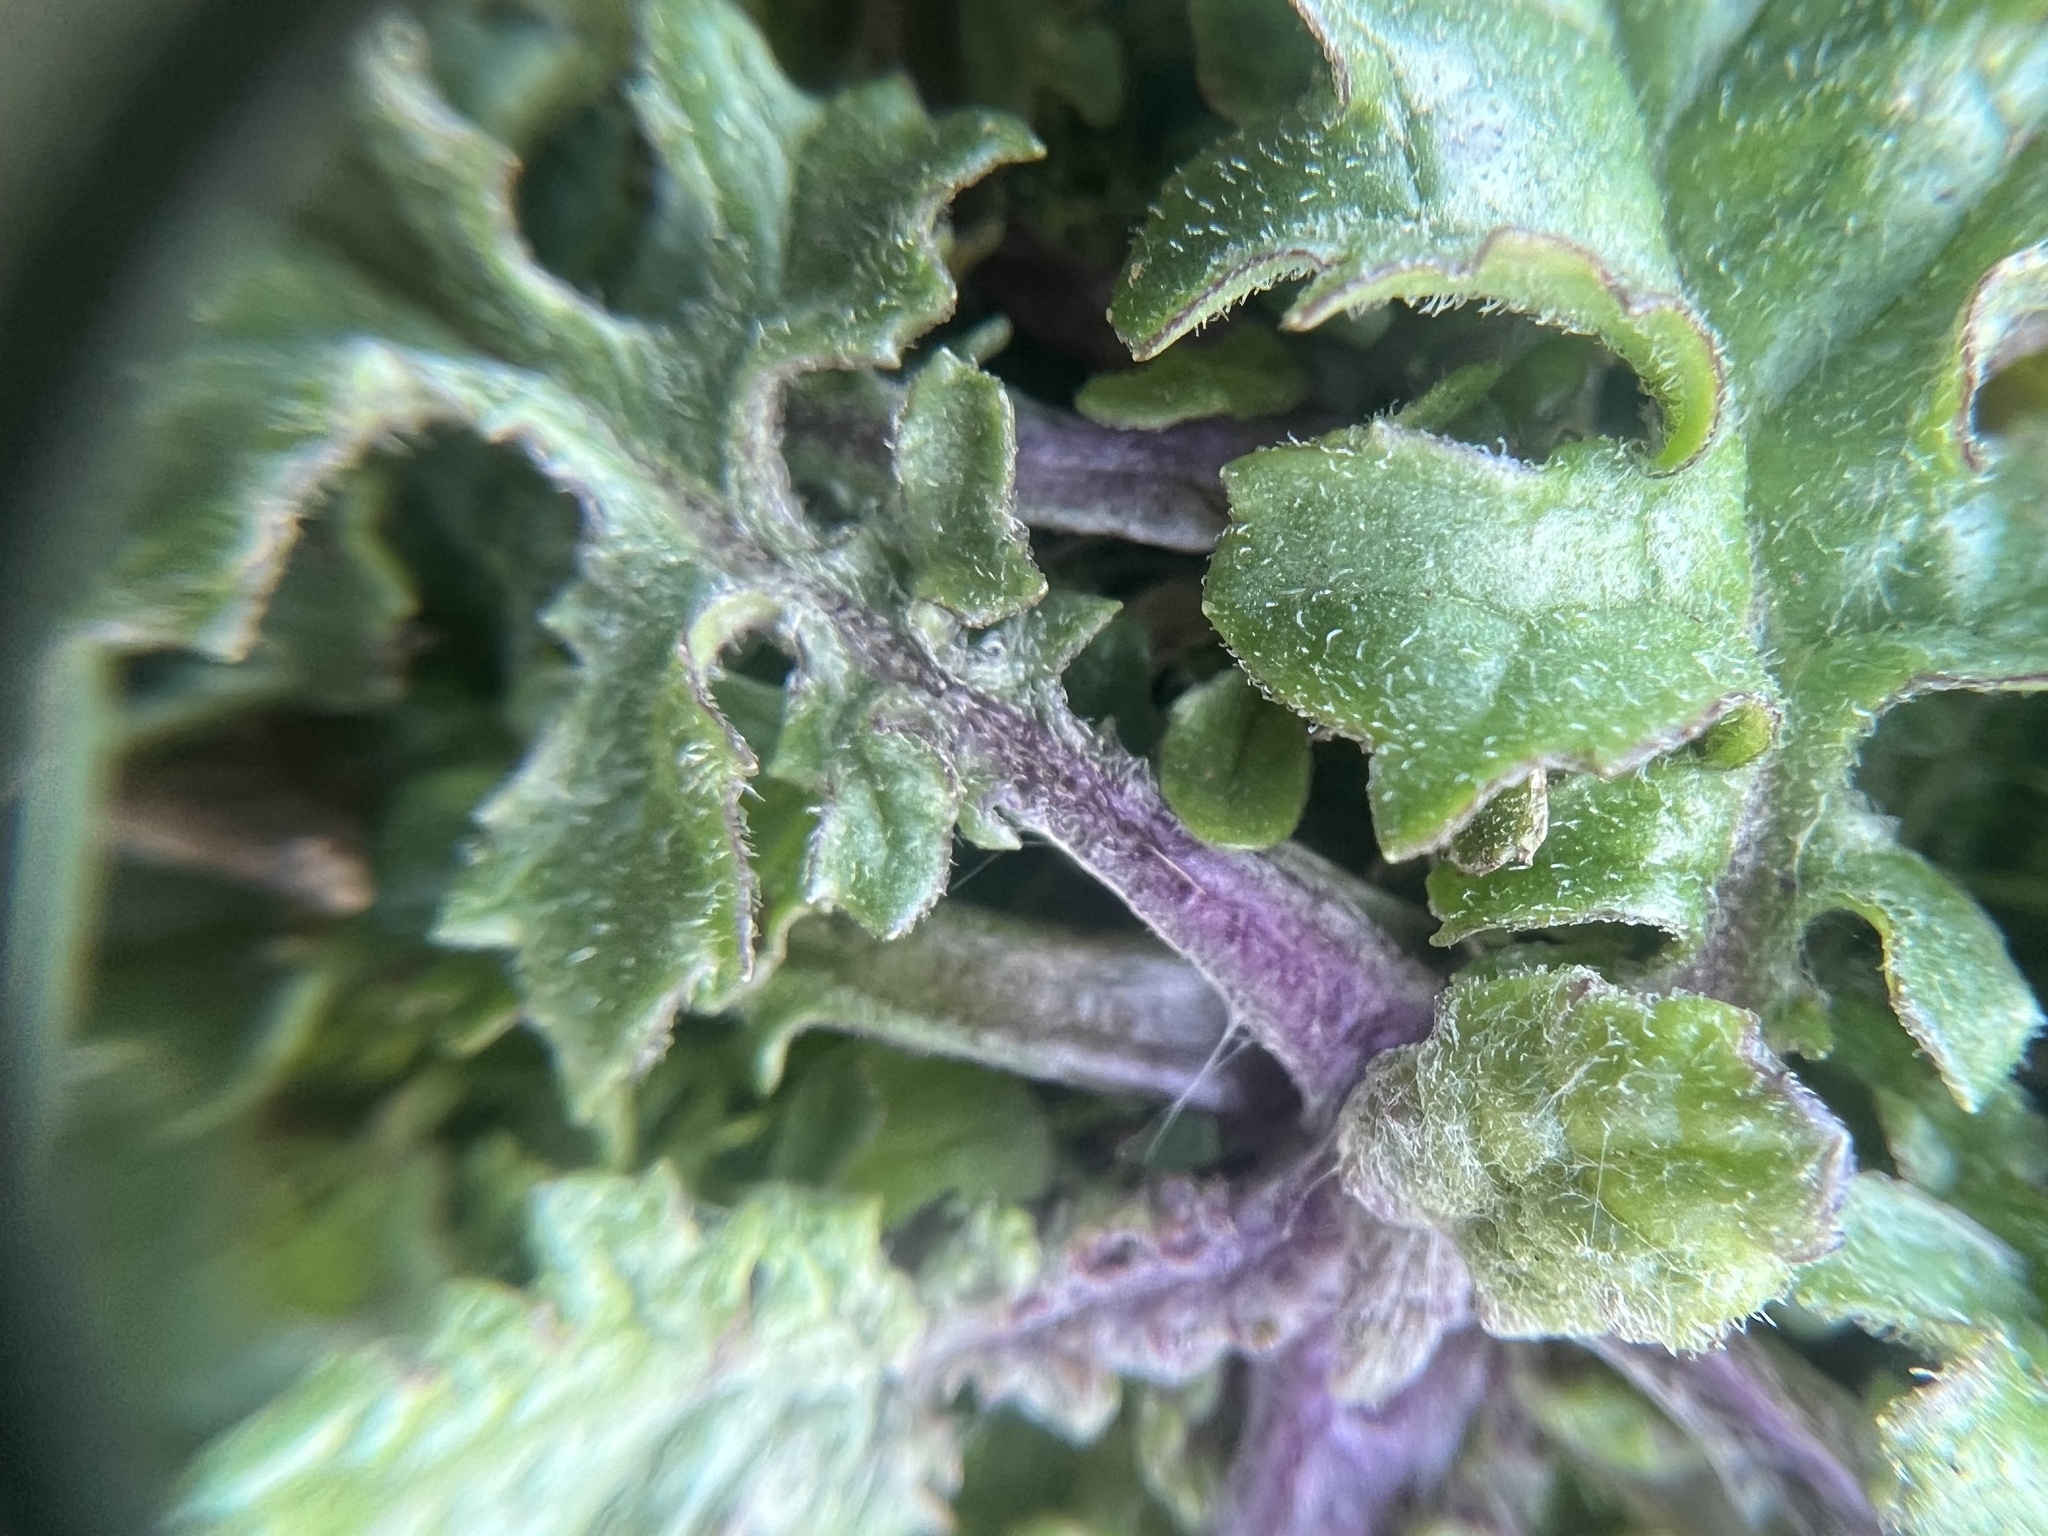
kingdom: Plantae
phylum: Tracheophyta
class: Magnoliopsida
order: Asterales
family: Asteraceae
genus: Jacobaea
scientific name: Jacobaea vulgaris
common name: Stinking willie
